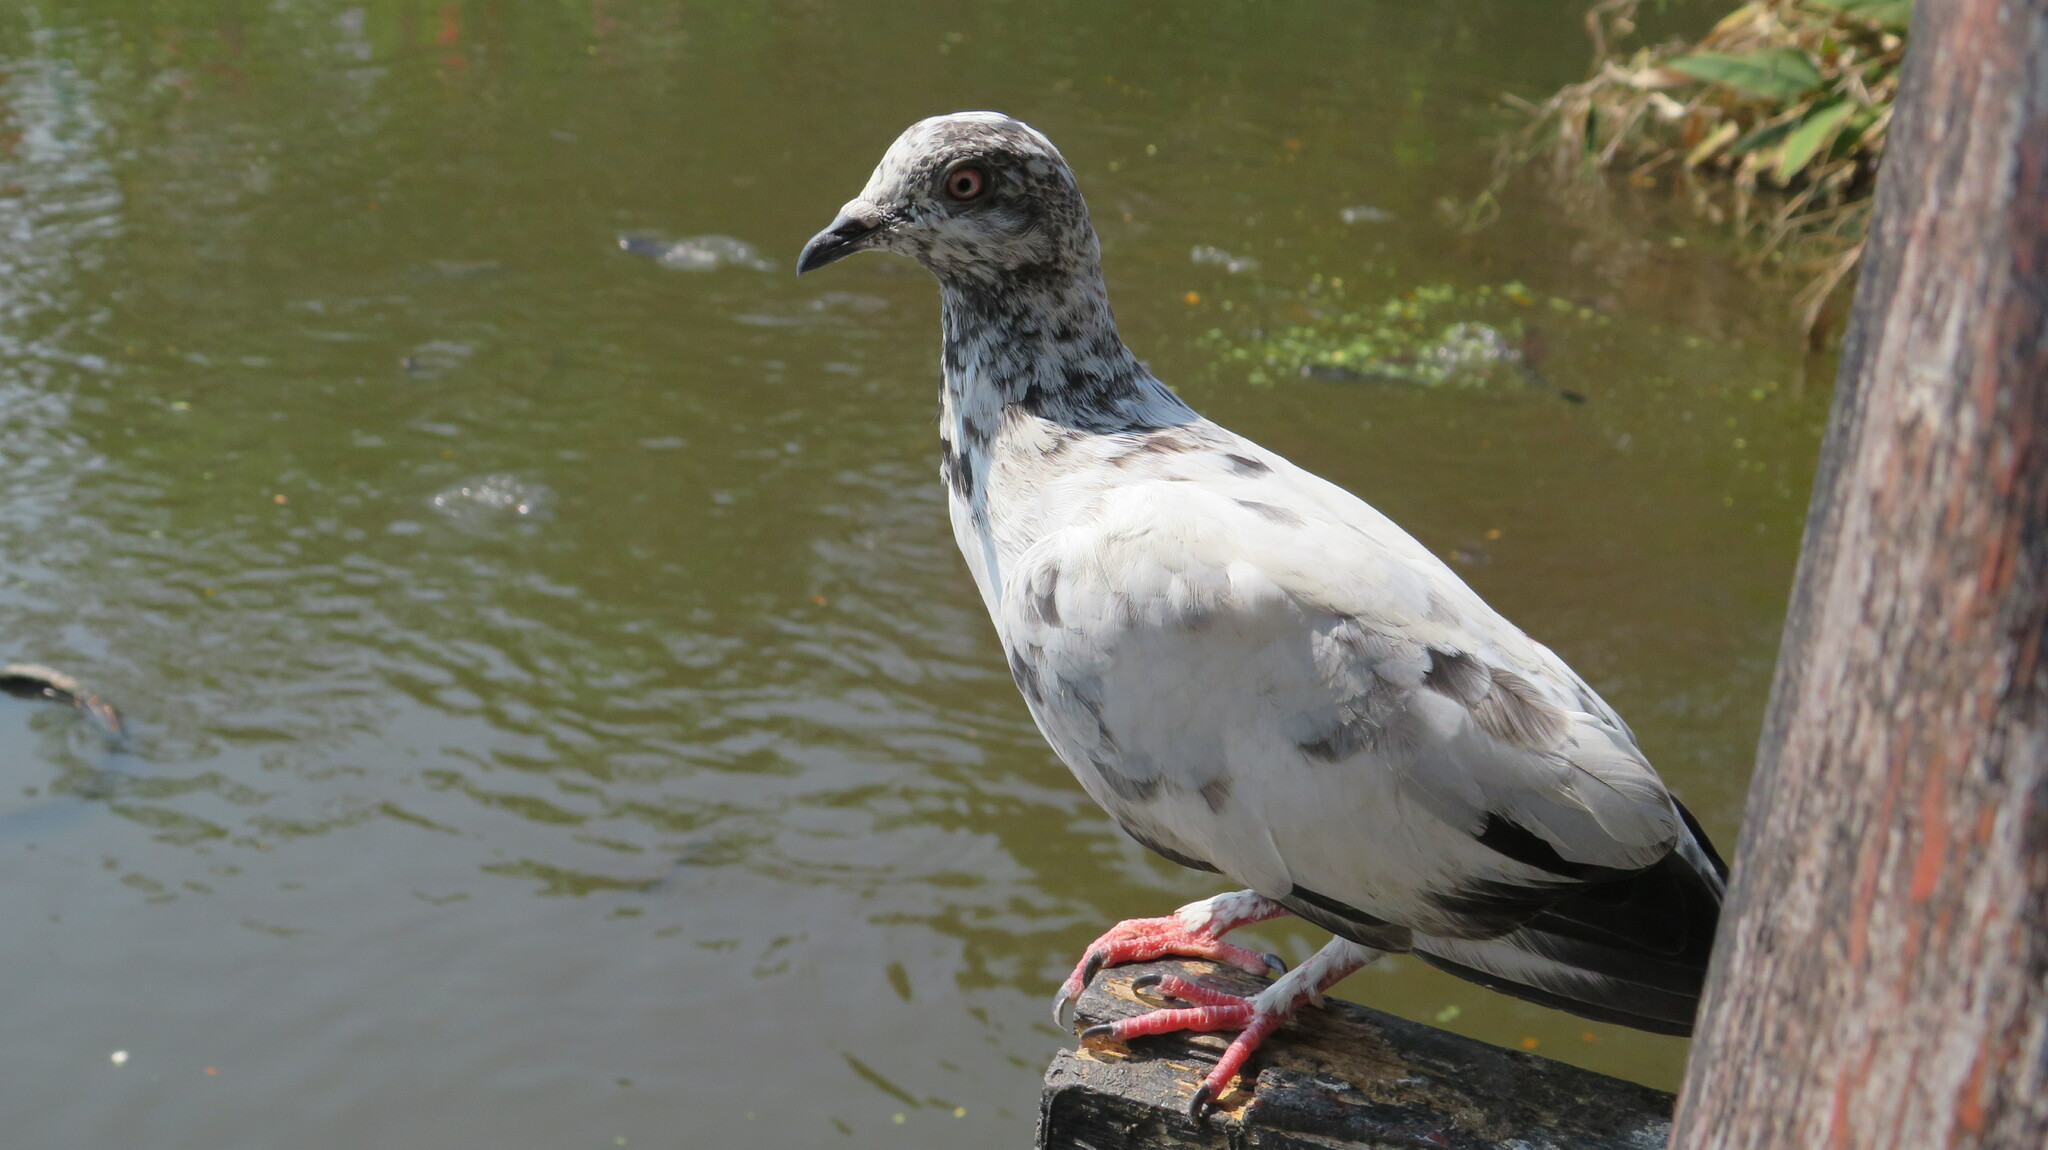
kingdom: Animalia
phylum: Chordata
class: Aves
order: Columbiformes
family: Columbidae
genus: Columba
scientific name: Columba livia
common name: Rock pigeon
